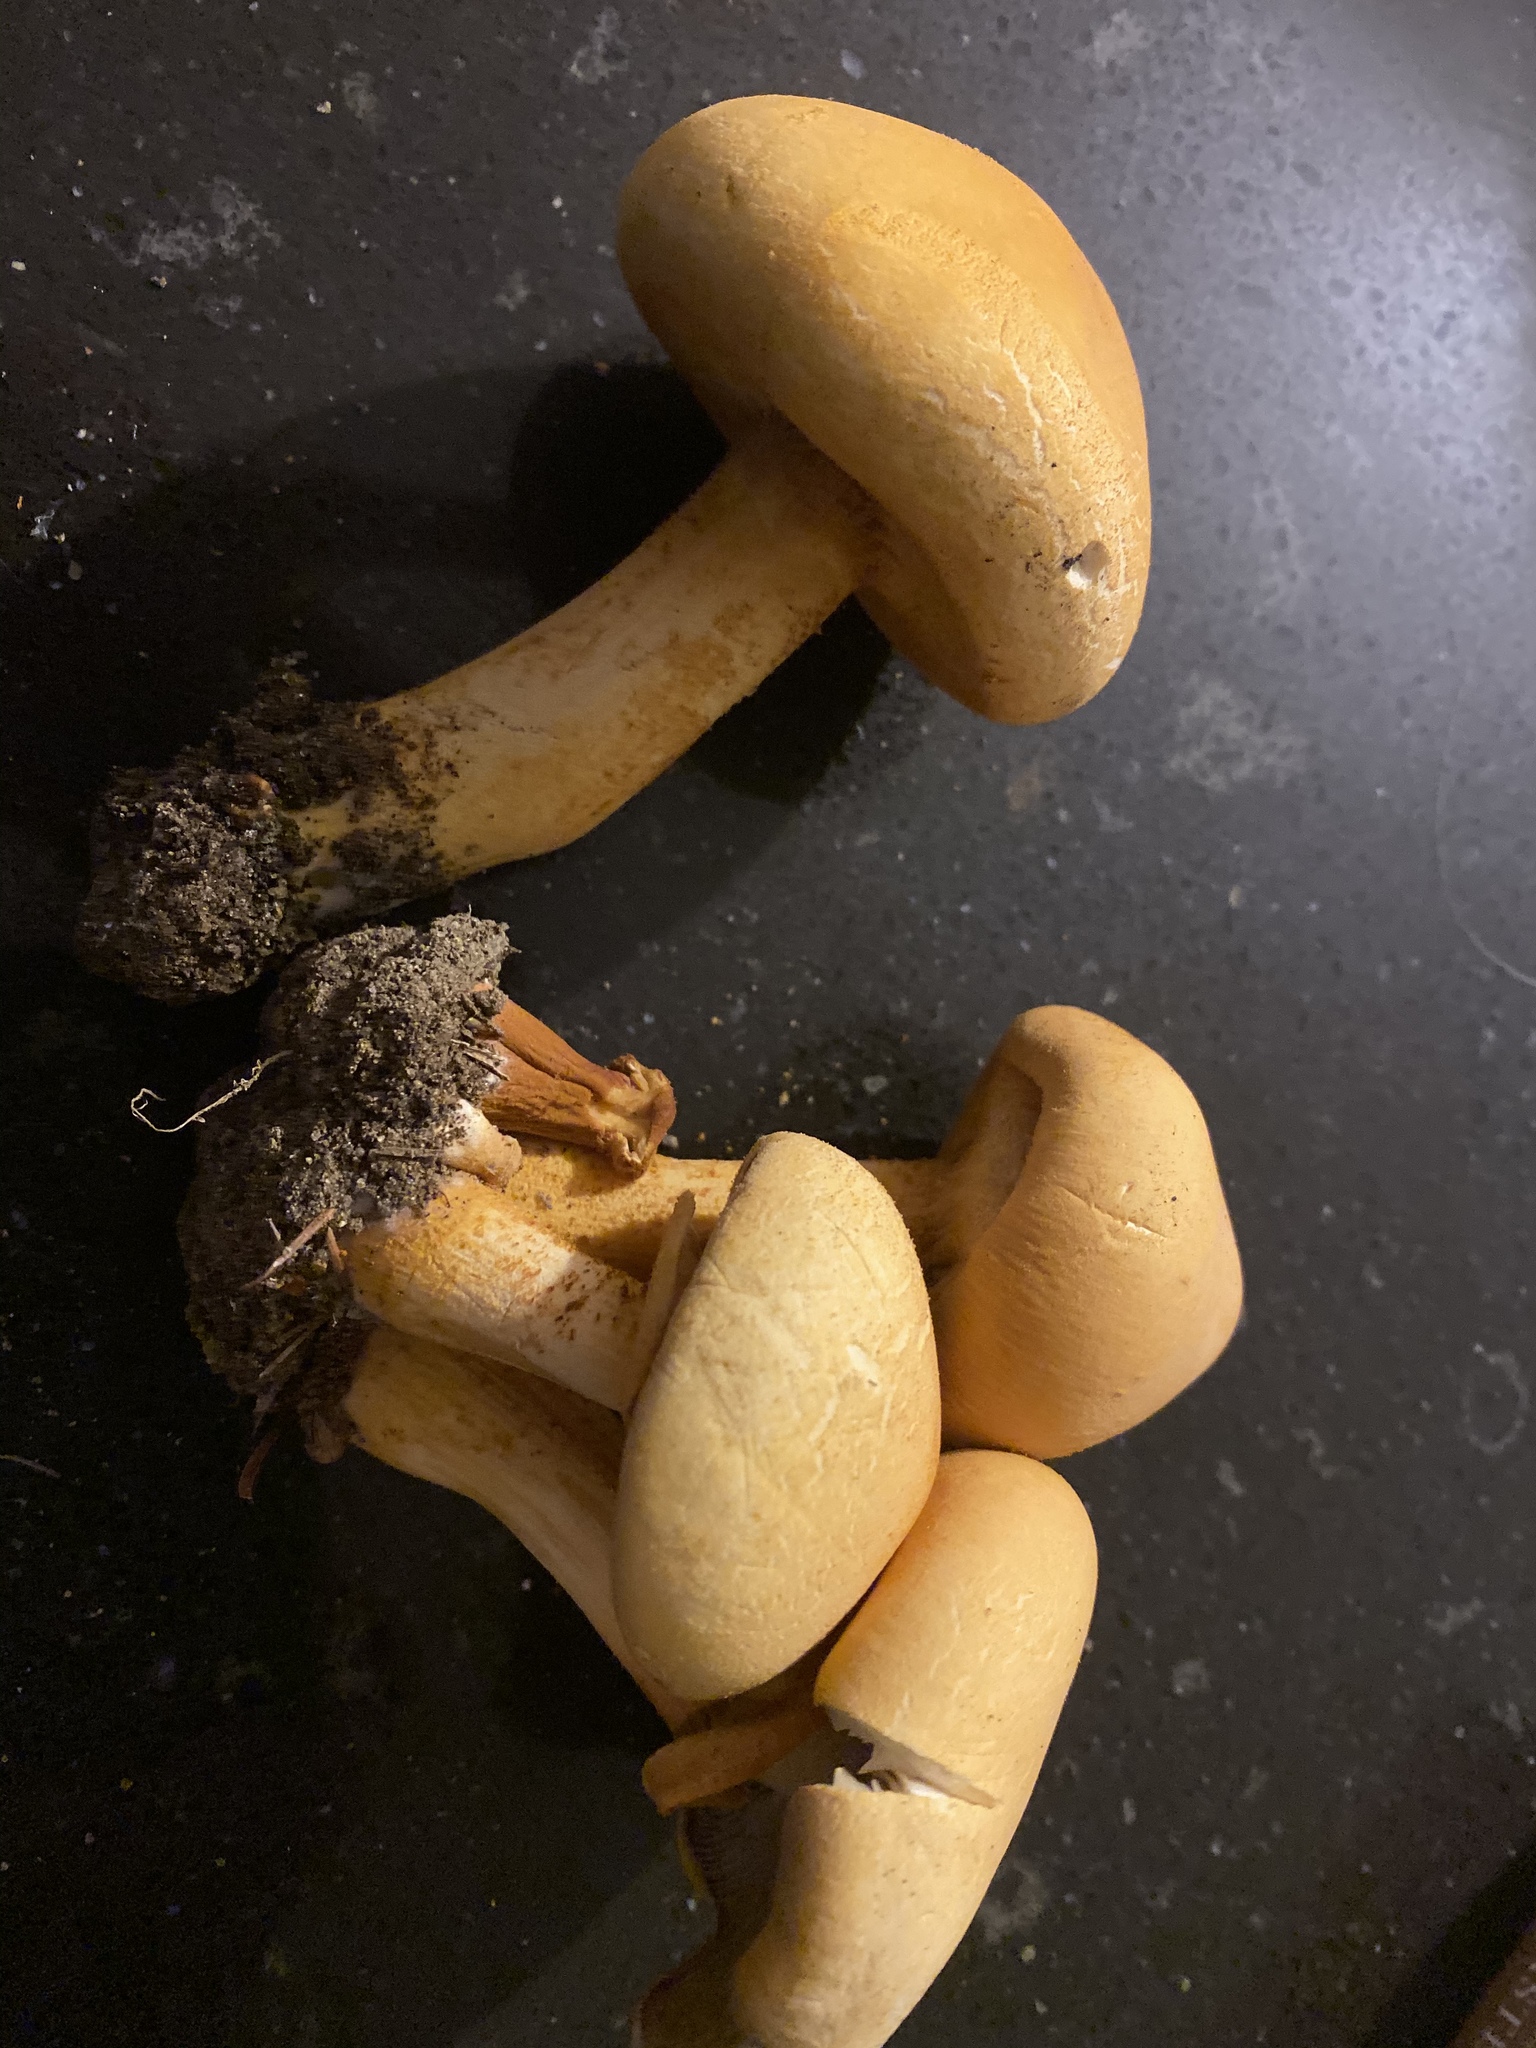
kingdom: Fungi
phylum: Basidiomycota
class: Agaricomycetes
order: Agaricales
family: Tricholomataceae
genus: Phaeolepiota
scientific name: Phaeolepiota aurea
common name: Golden bootleg
